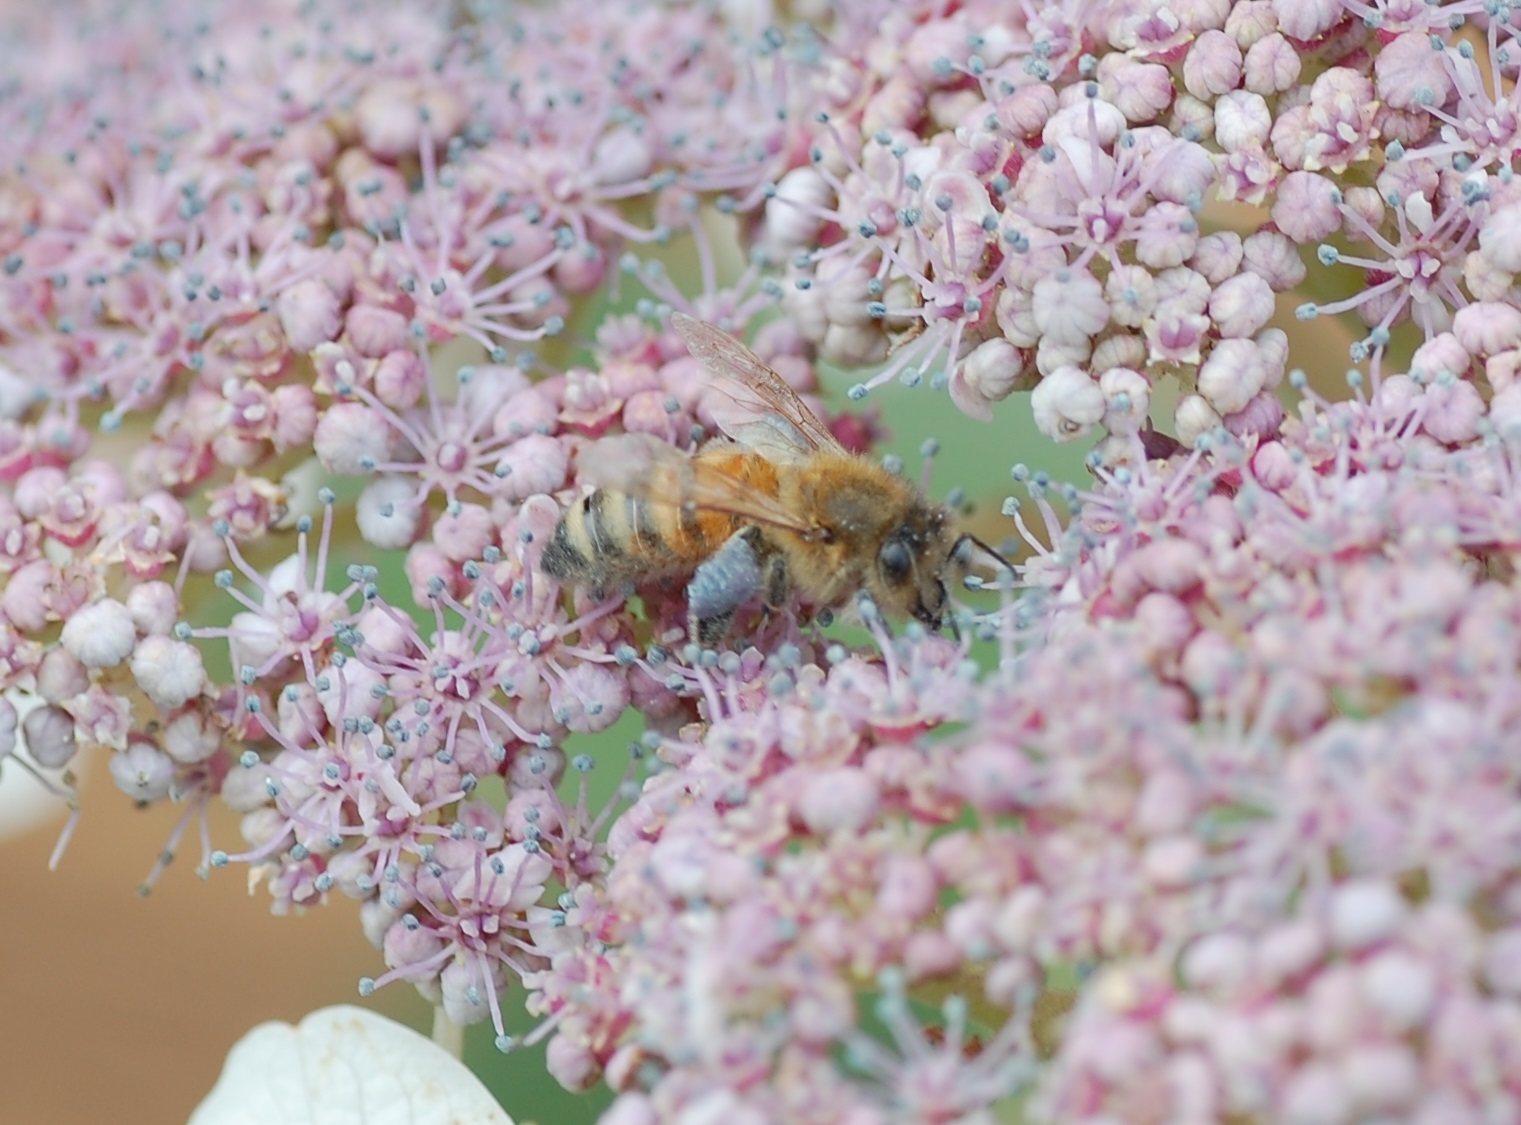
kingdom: Animalia
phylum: Arthropoda
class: Insecta
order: Hymenoptera
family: Apidae
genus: Apis
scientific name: Apis mellifera
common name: Honey bee
